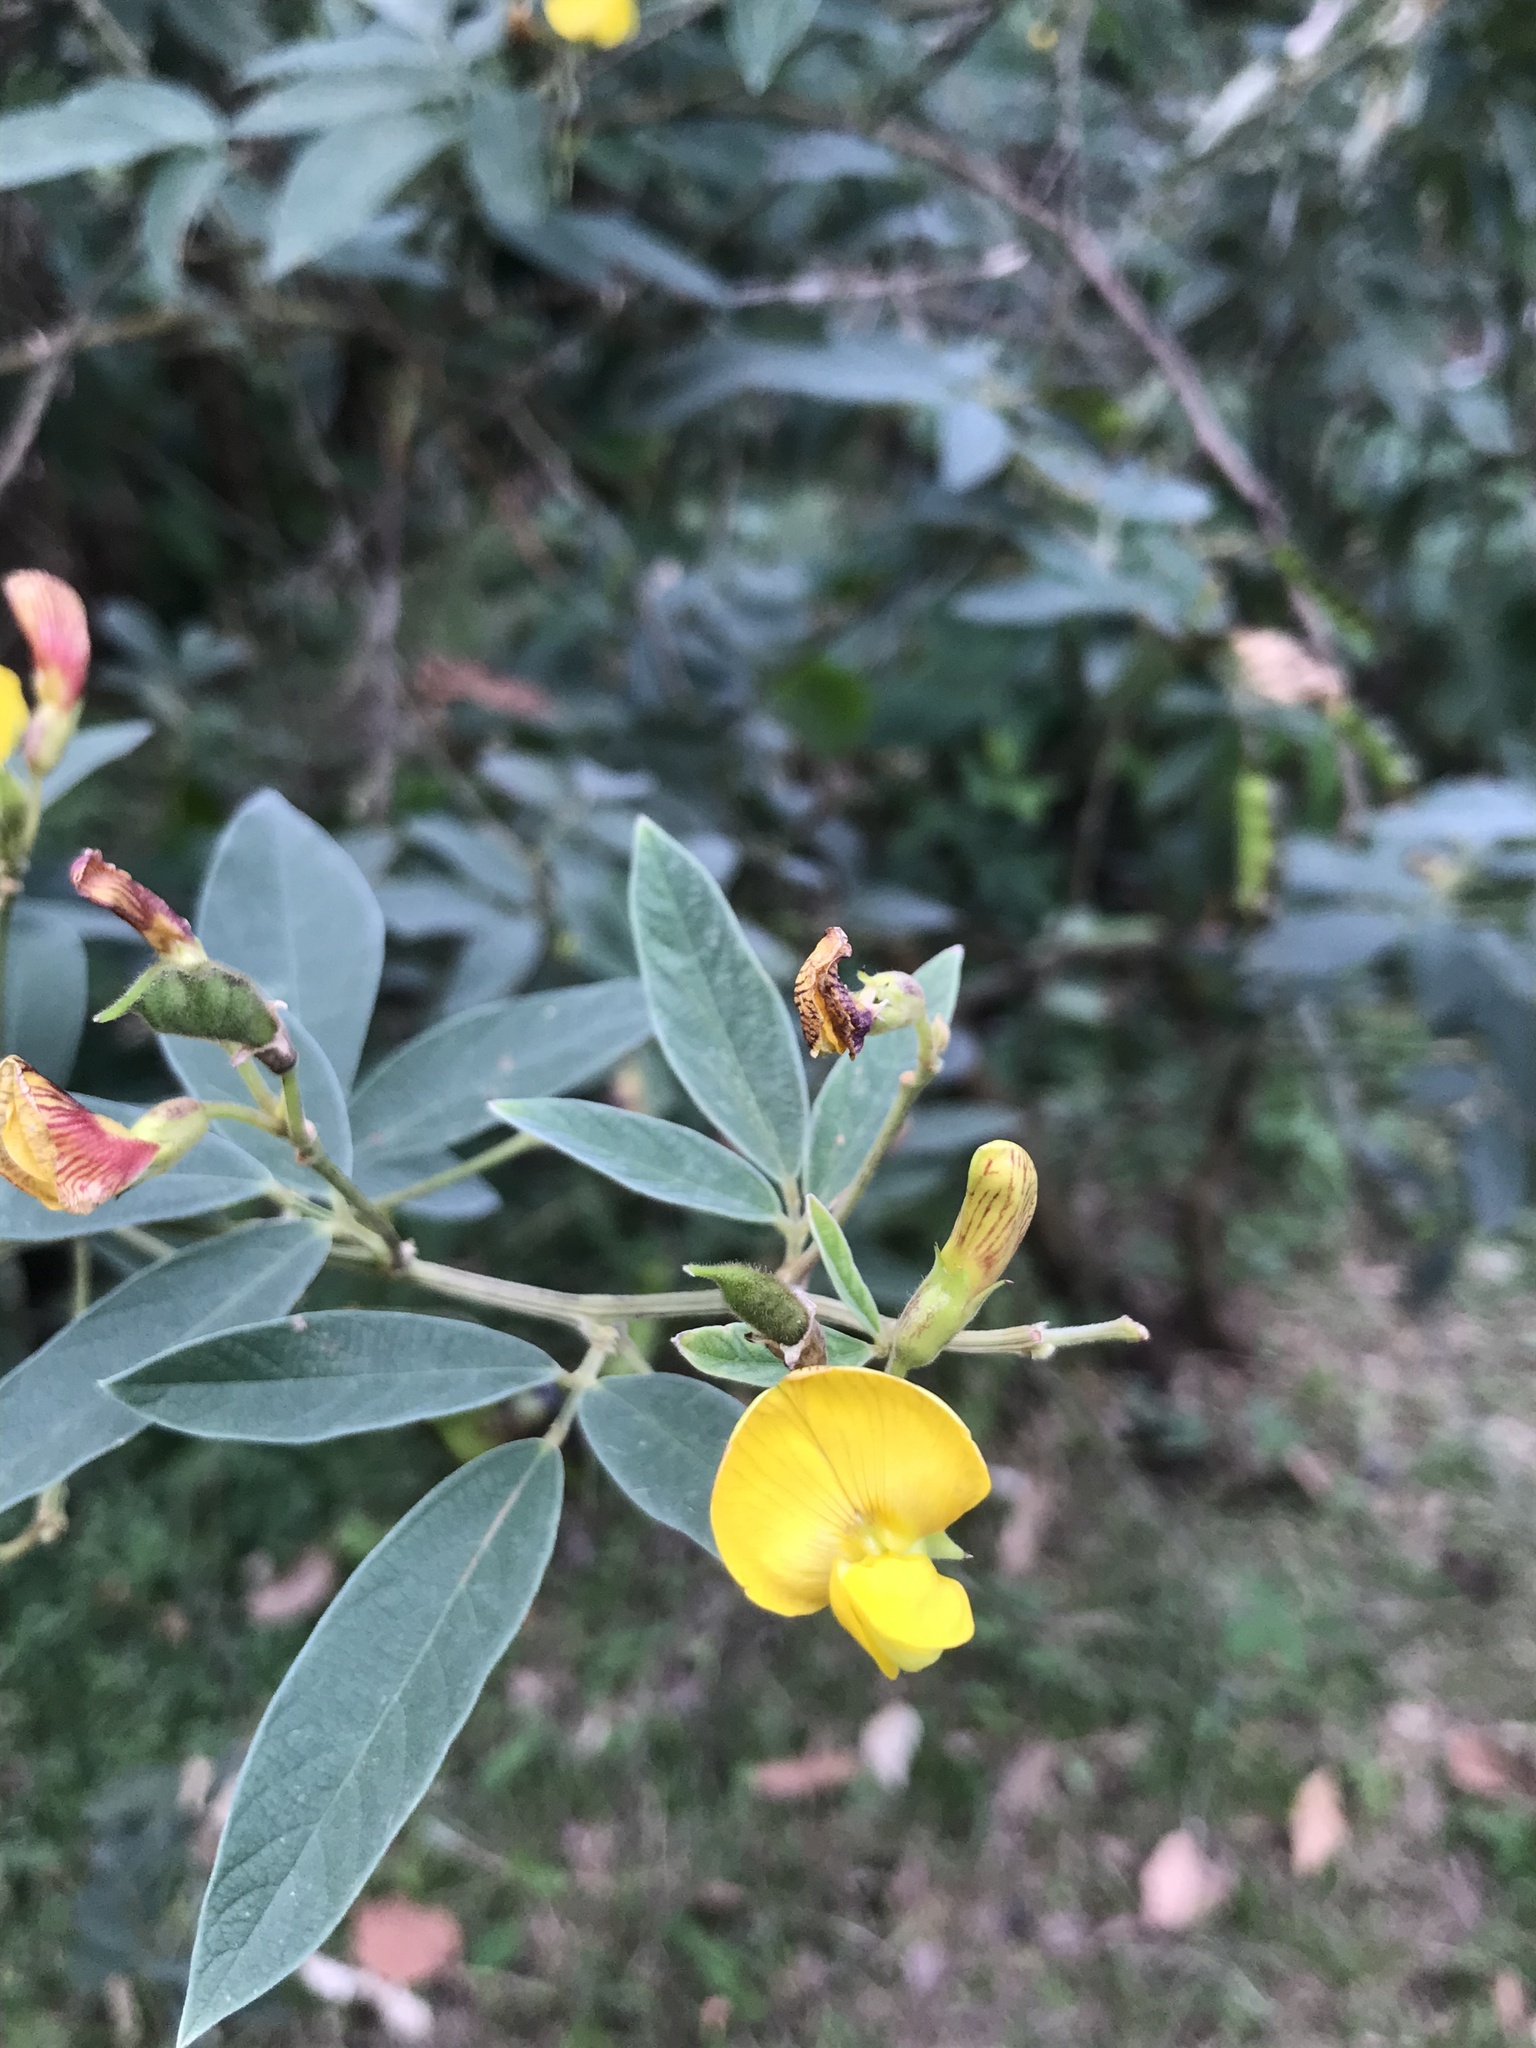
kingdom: Plantae
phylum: Tracheophyta
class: Magnoliopsida
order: Fabales
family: Fabaceae
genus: Cajanus
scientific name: Cajanus cajan
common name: Pigeonpea
